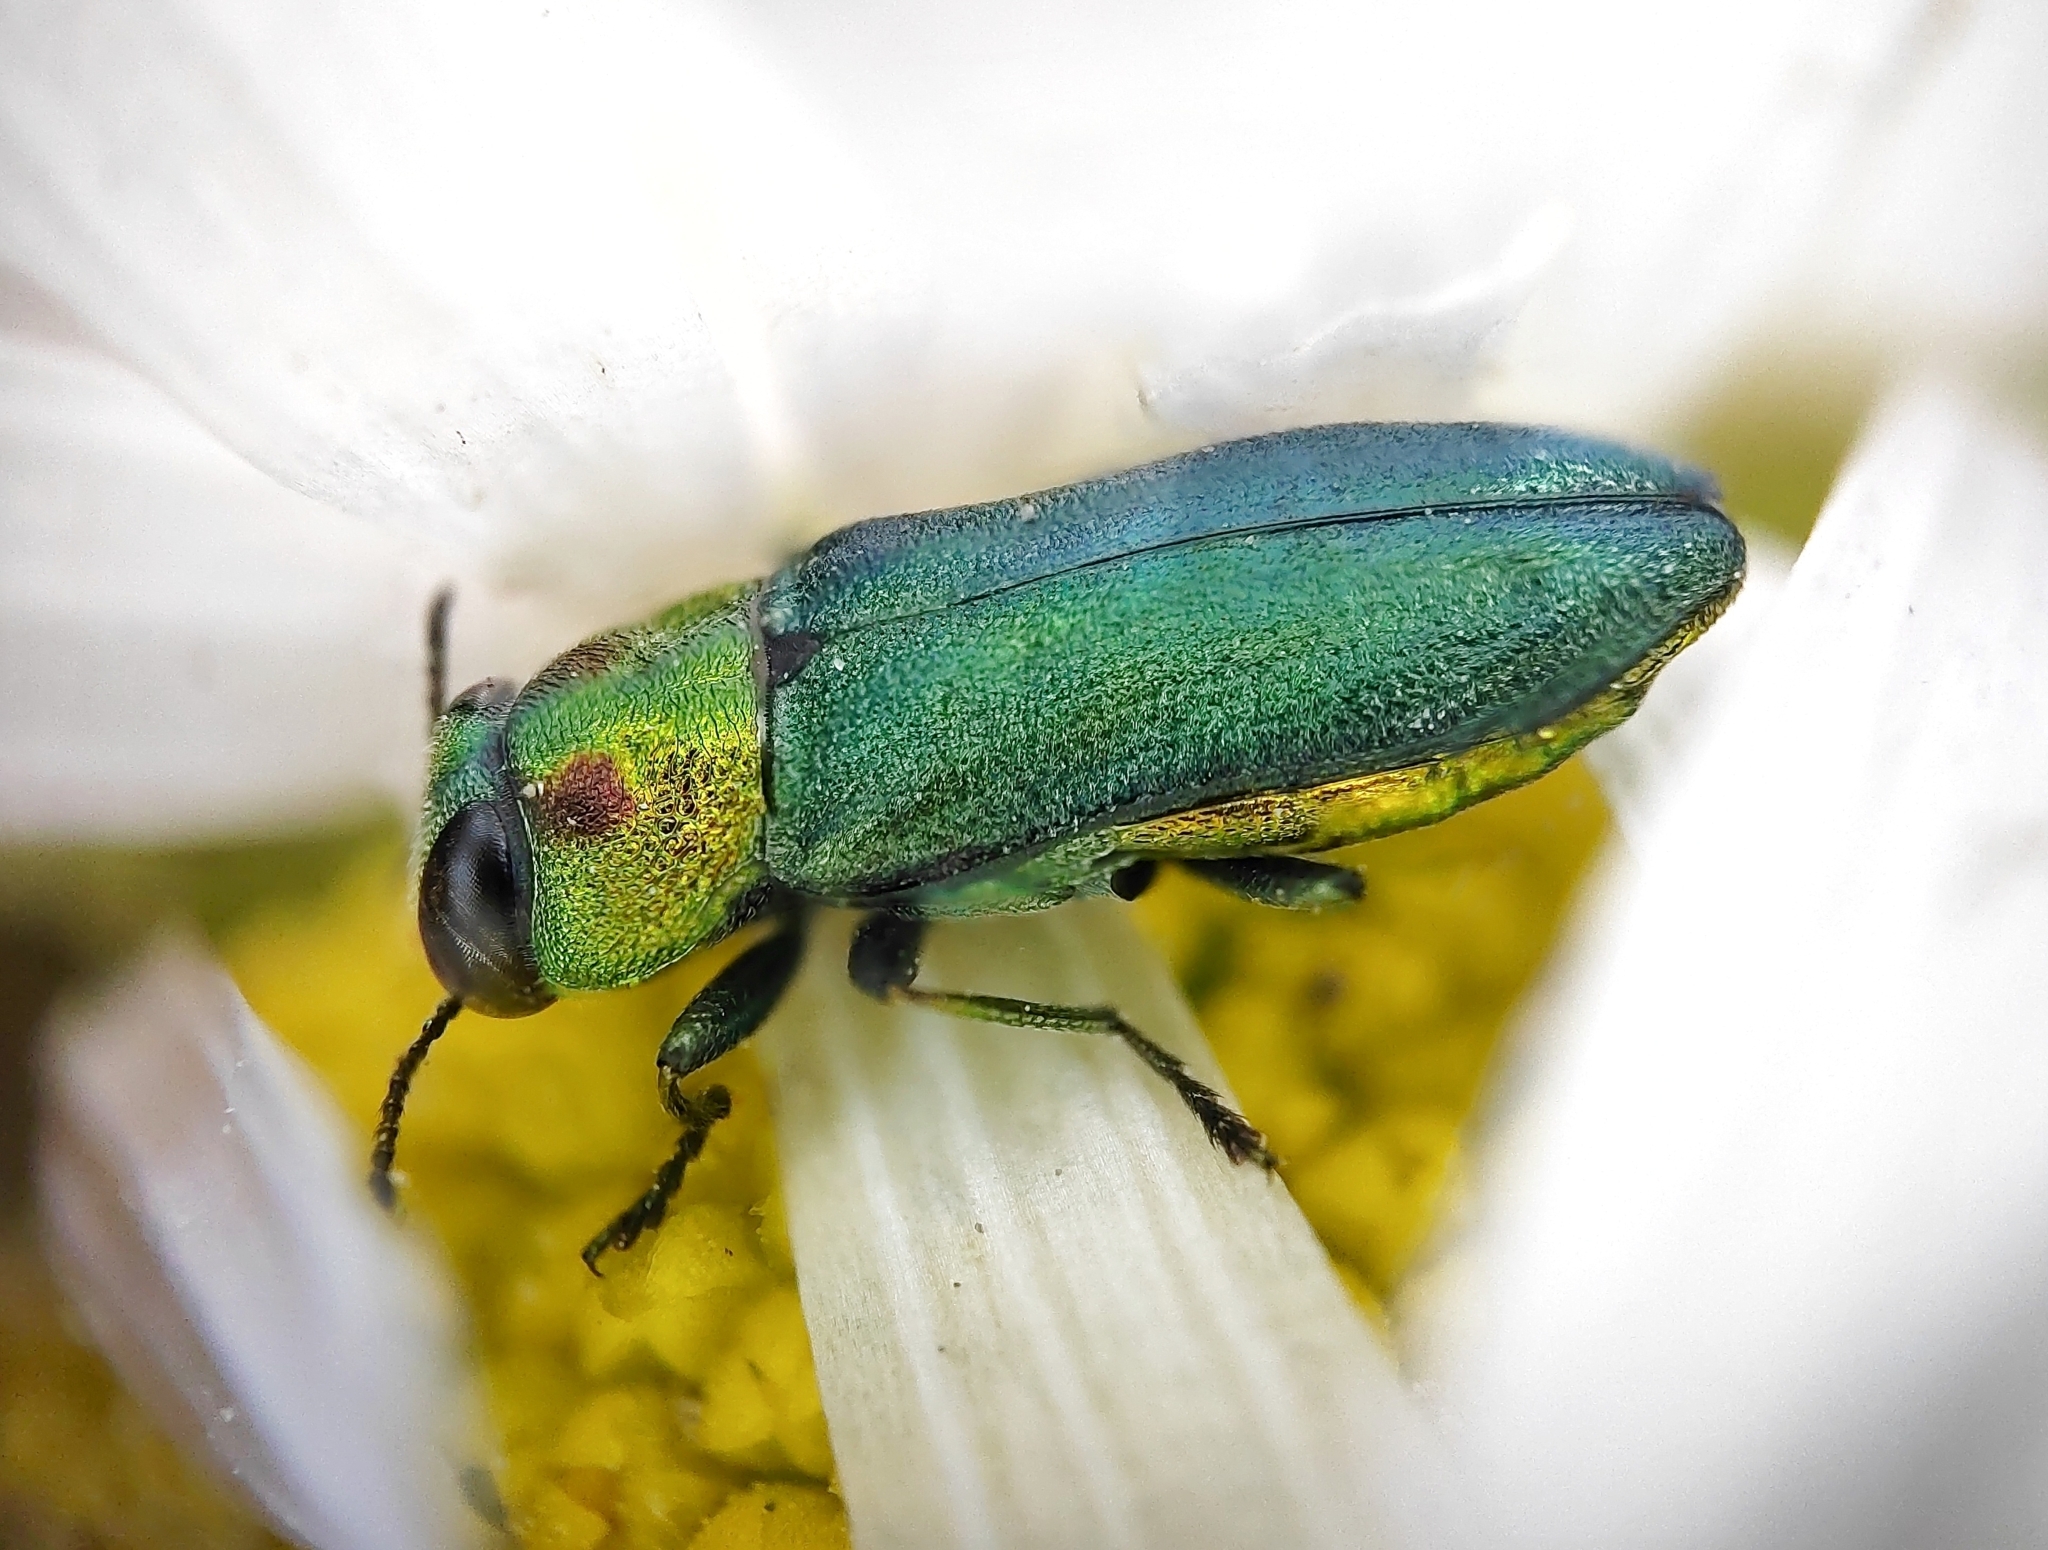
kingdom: Animalia
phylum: Arthropoda
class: Insecta
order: Coleoptera
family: Buprestidae
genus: Anthaxia
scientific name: Anthaxia nitidula
